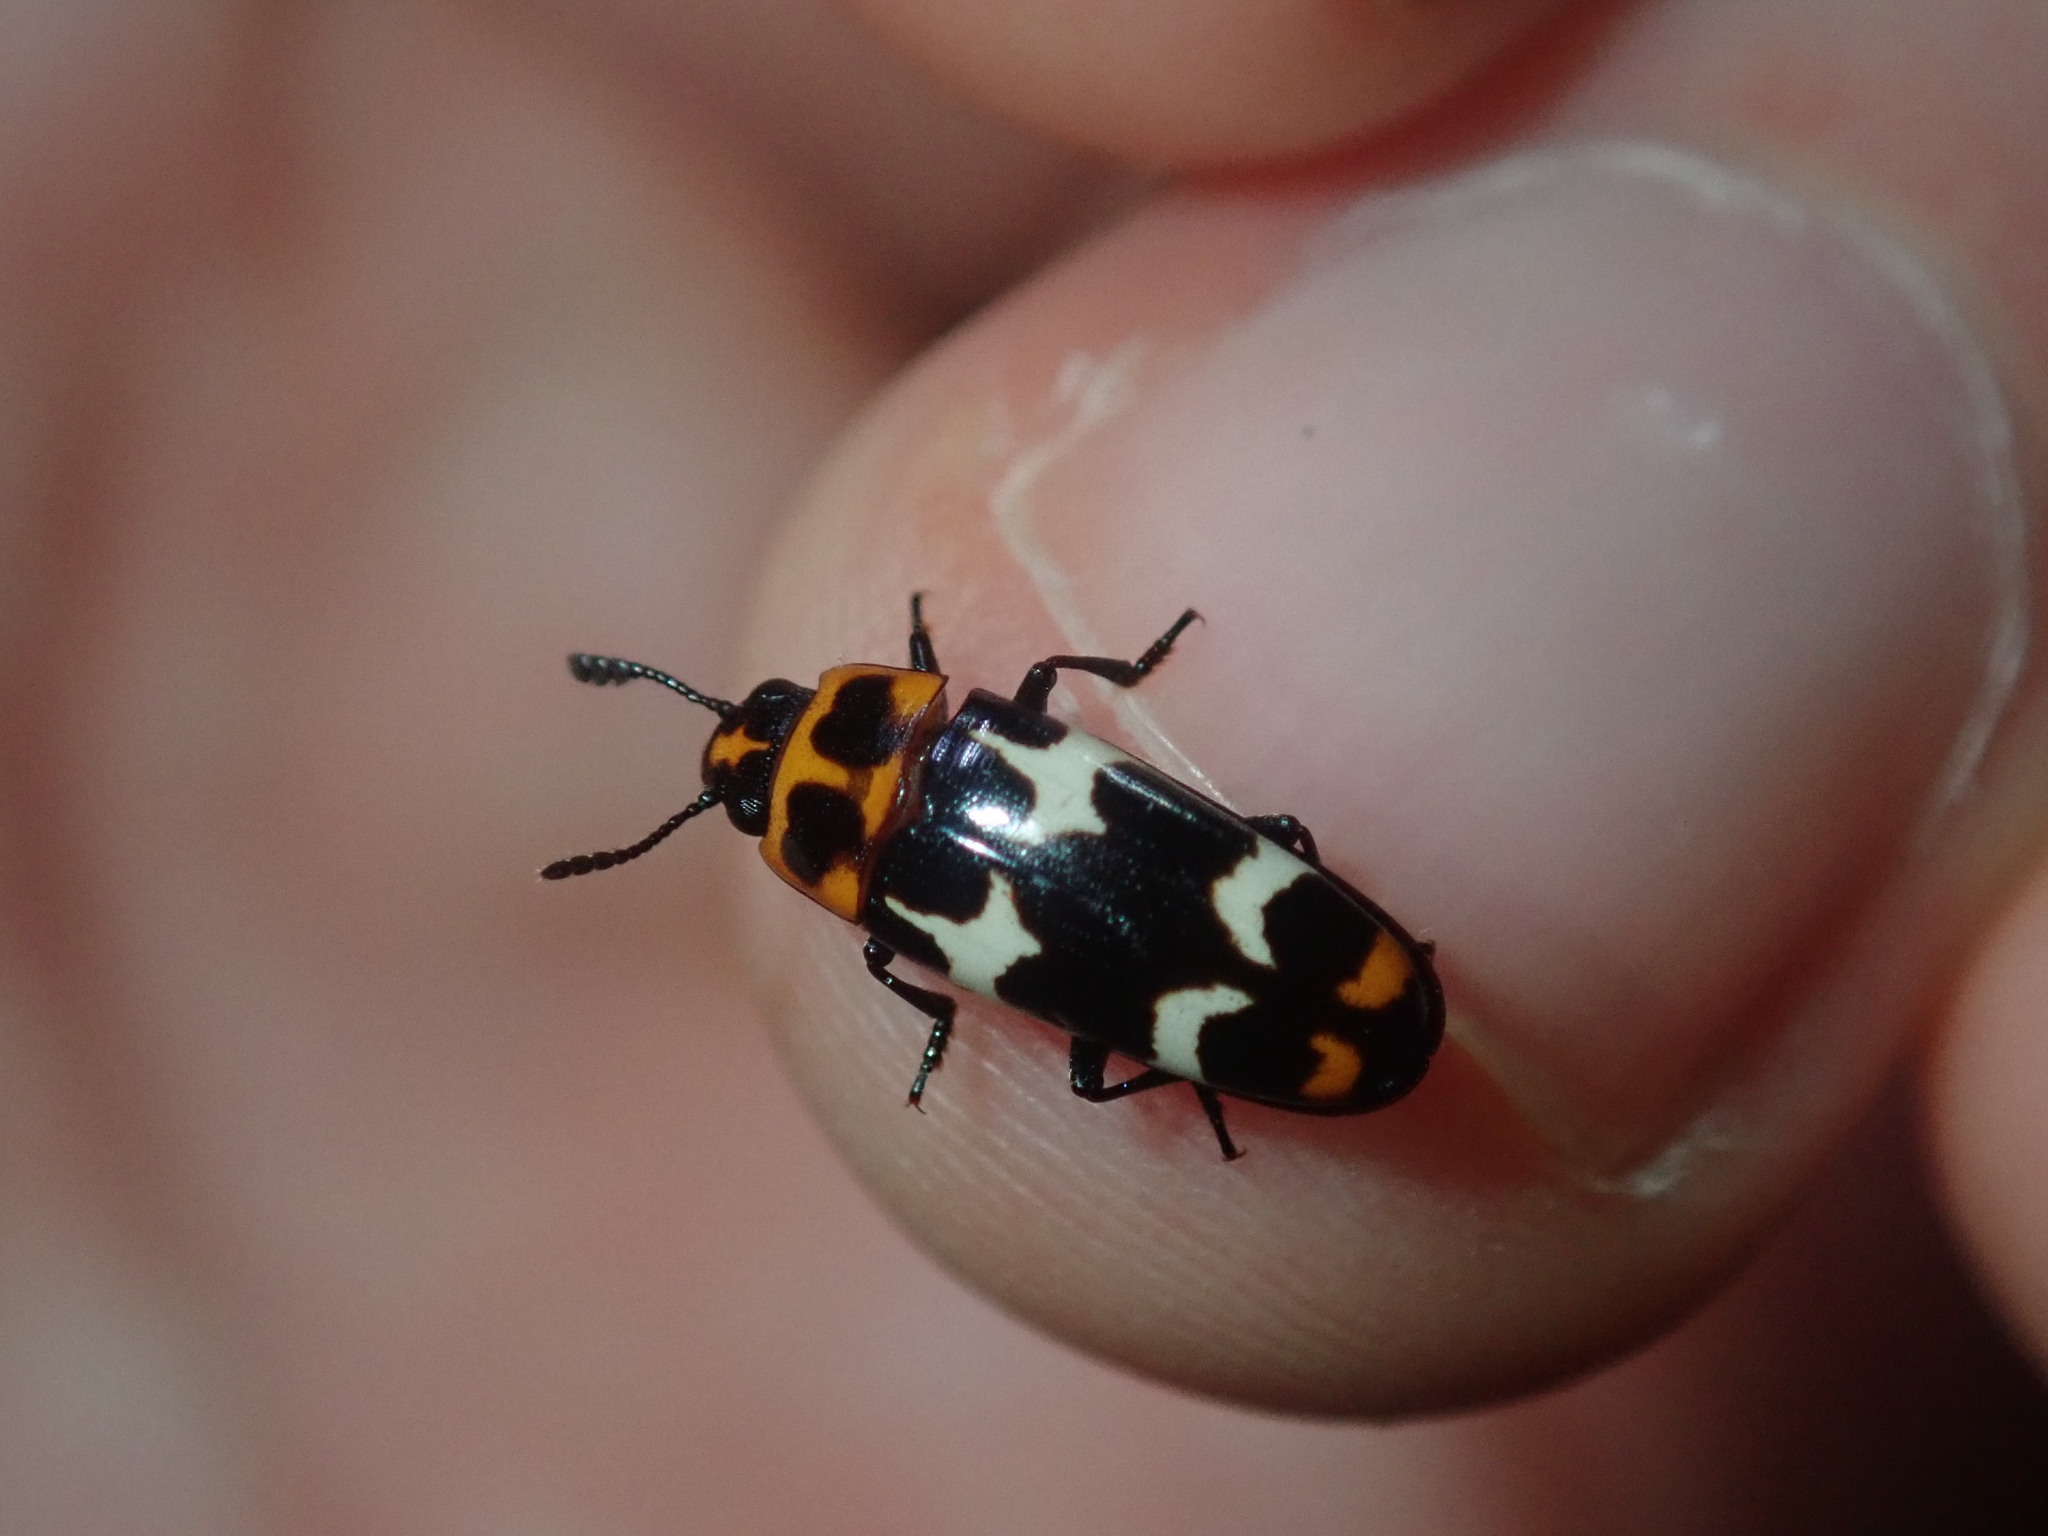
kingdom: Animalia
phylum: Arthropoda
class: Insecta
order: Coleoptera
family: Erotylidae
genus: Episcaphula
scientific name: Episcaphula
